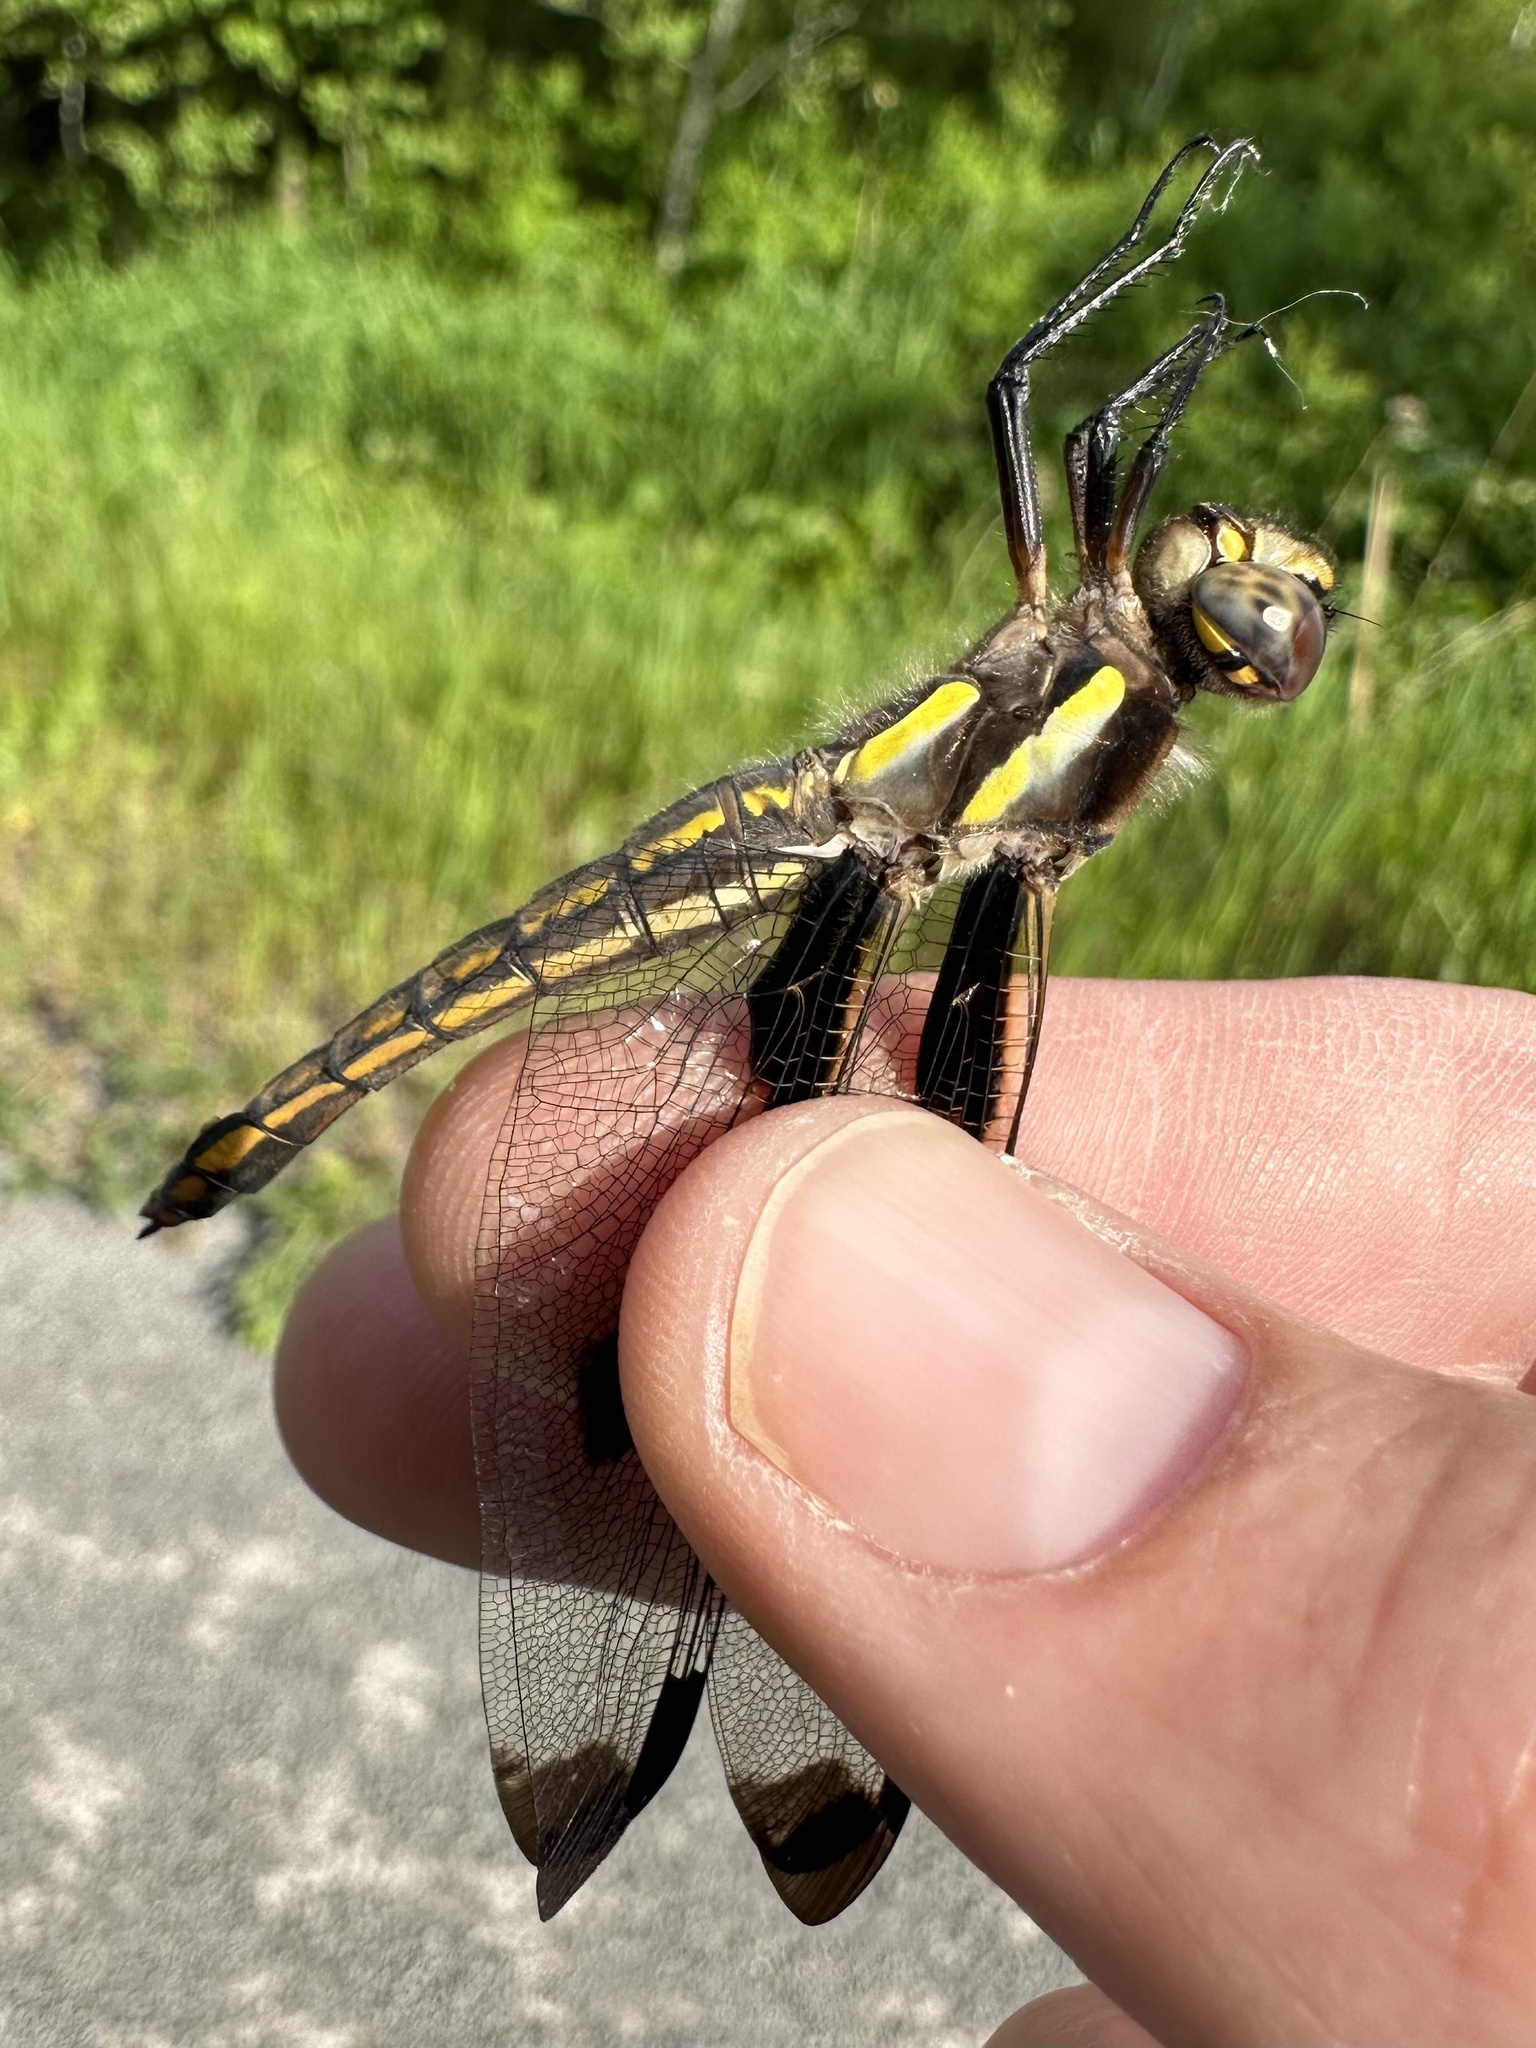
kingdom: Animalia
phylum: Arthropoda
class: Insecta
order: Odonata
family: Libellulidae
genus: Libellula
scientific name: Libellula pulchella
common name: Twelve-spotted skimmer
